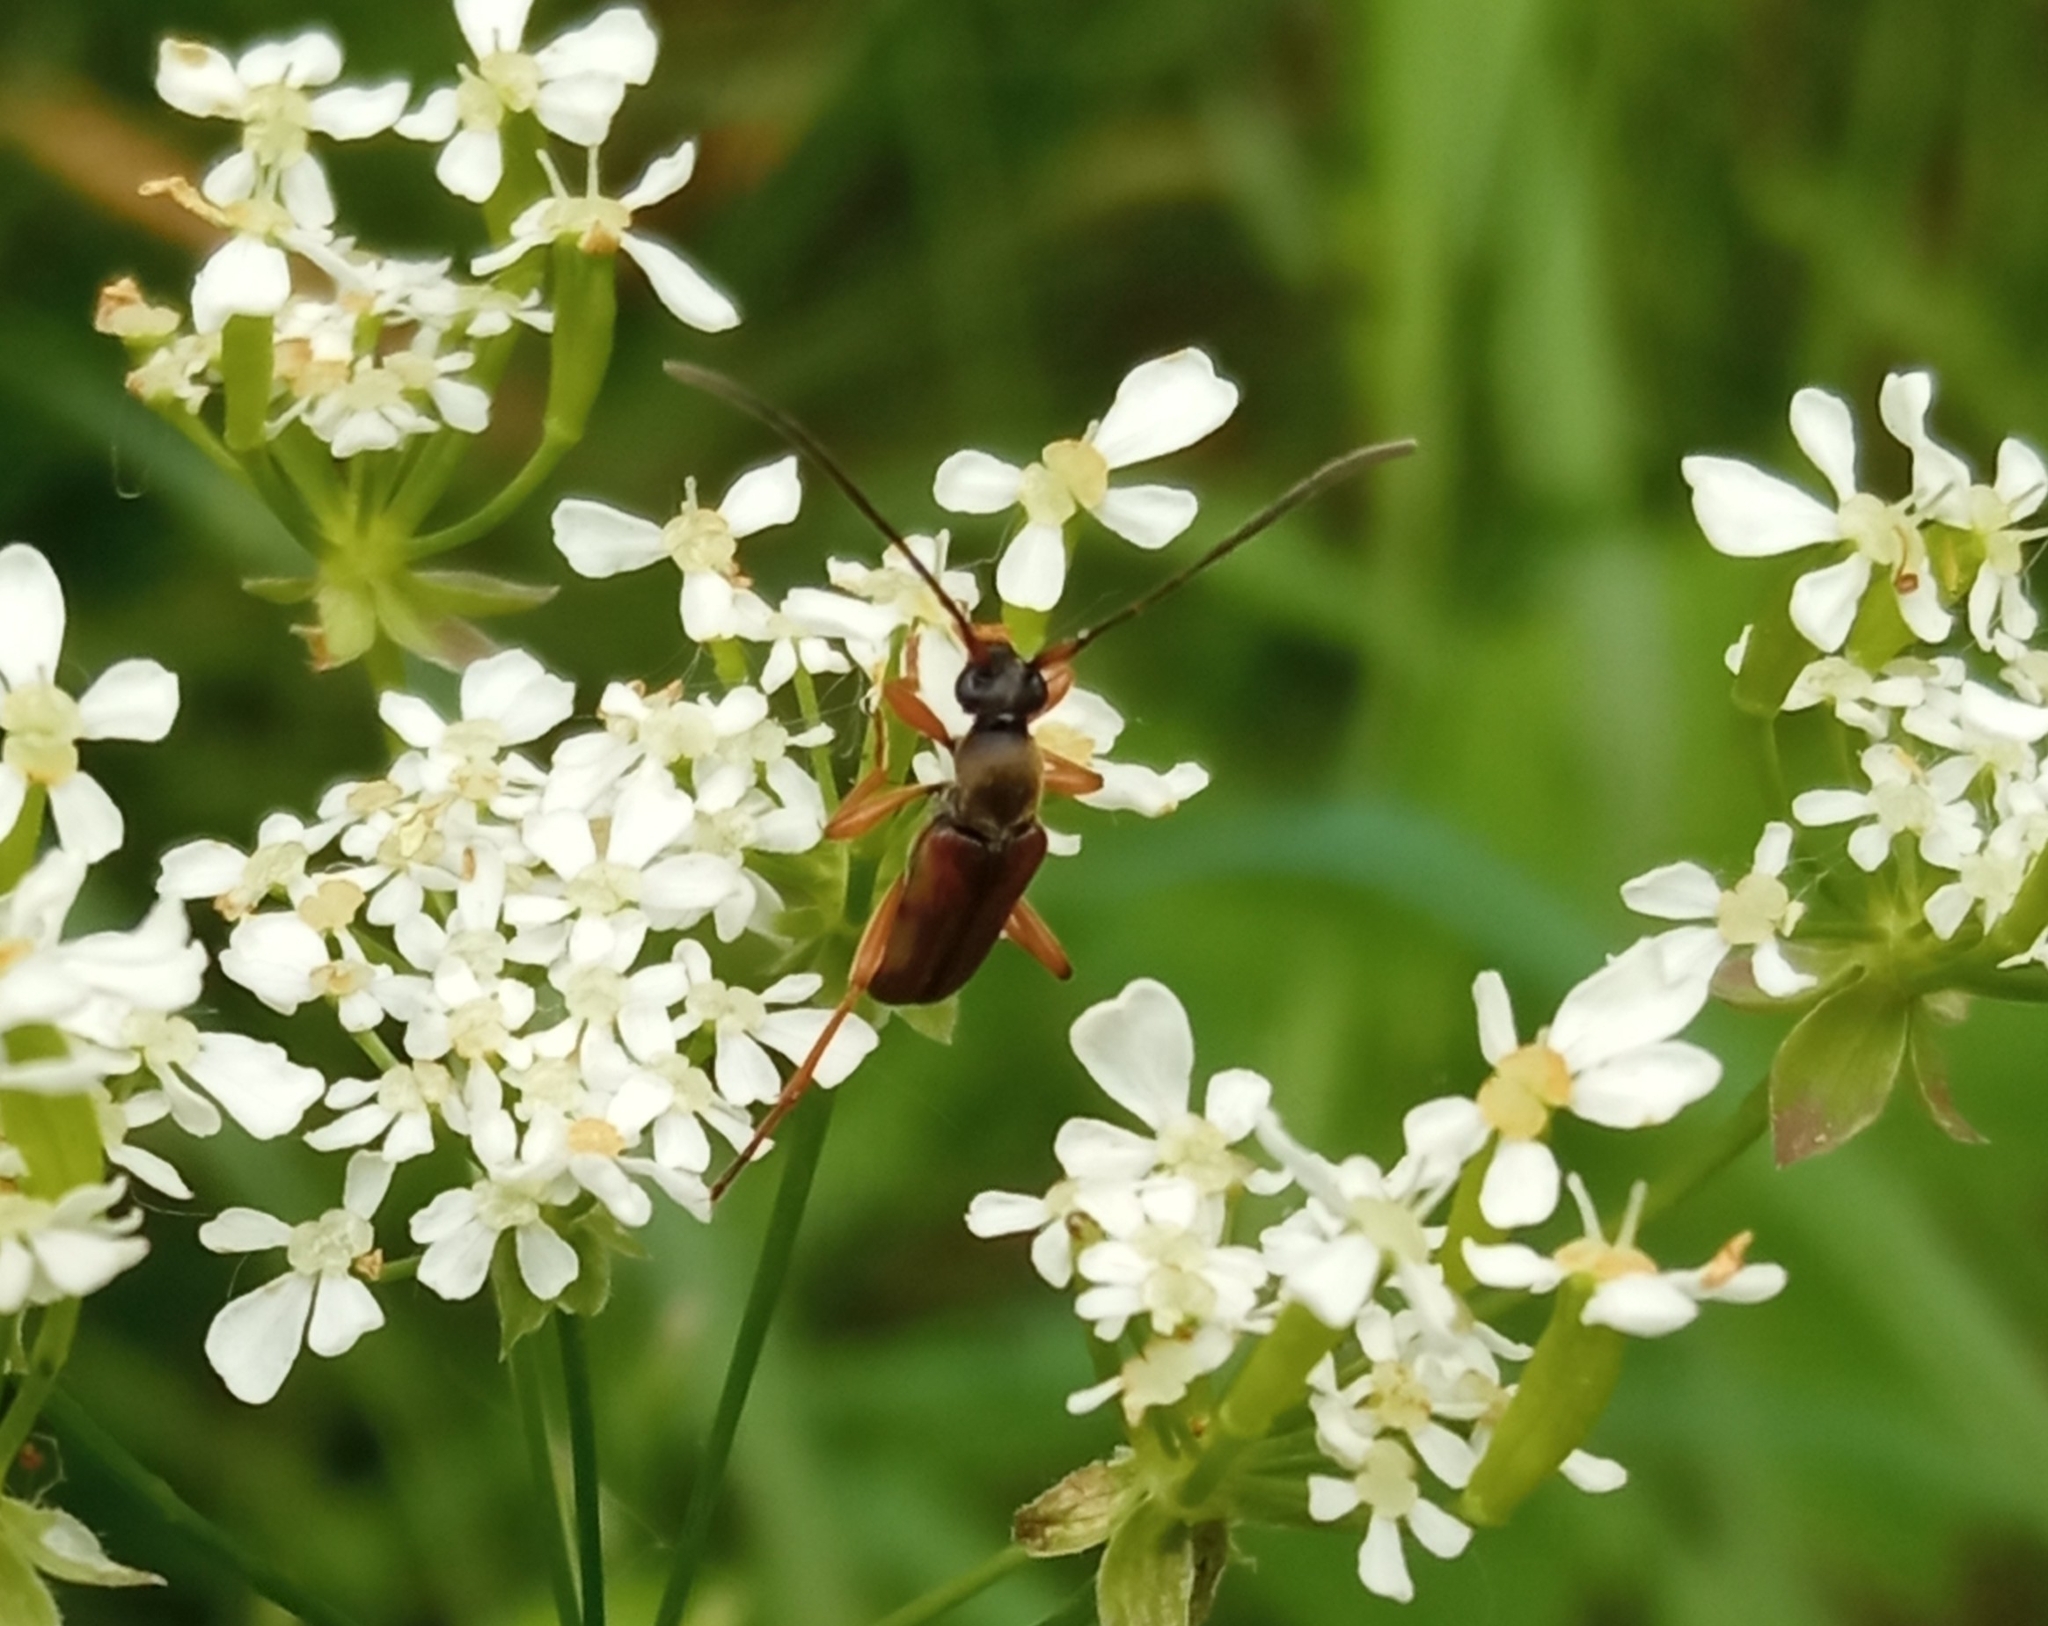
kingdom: Animalia
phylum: Arthropoda
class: Insecta
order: Coleoptera
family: Cerambycidae
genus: Alosterna
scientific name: Alosterna tabacicolor
